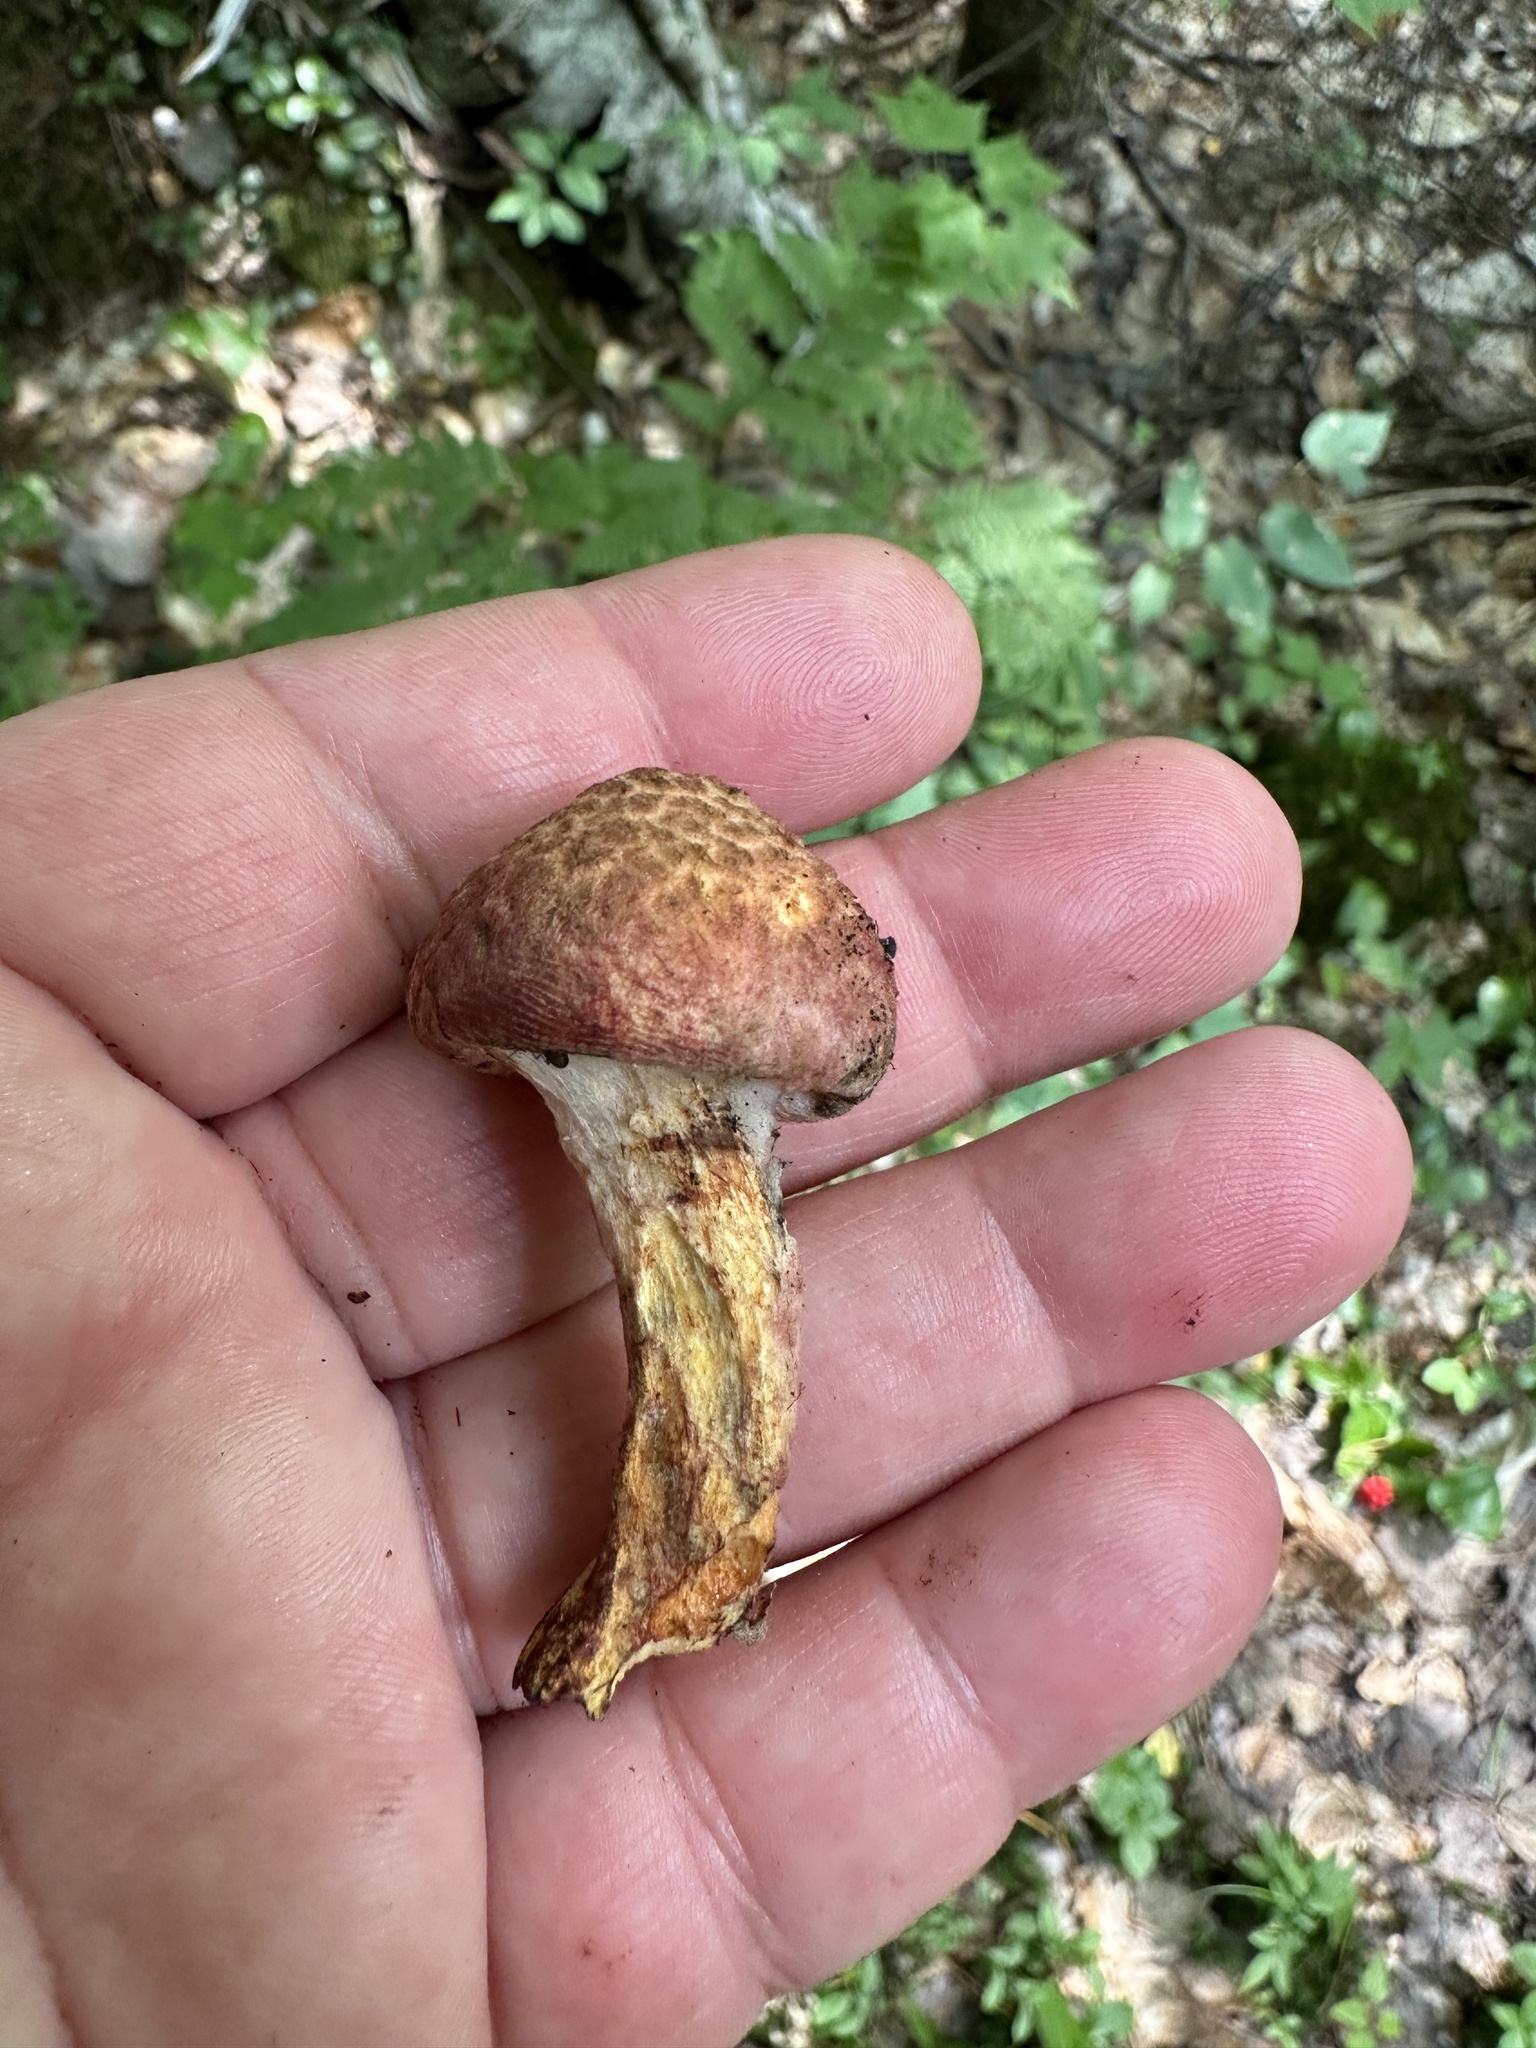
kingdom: Fungi
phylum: Basidiomycota
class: Agaricomycetes
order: Boletales
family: Suillaceae
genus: Suillus
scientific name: Suillus spraguei
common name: Painted suillus
